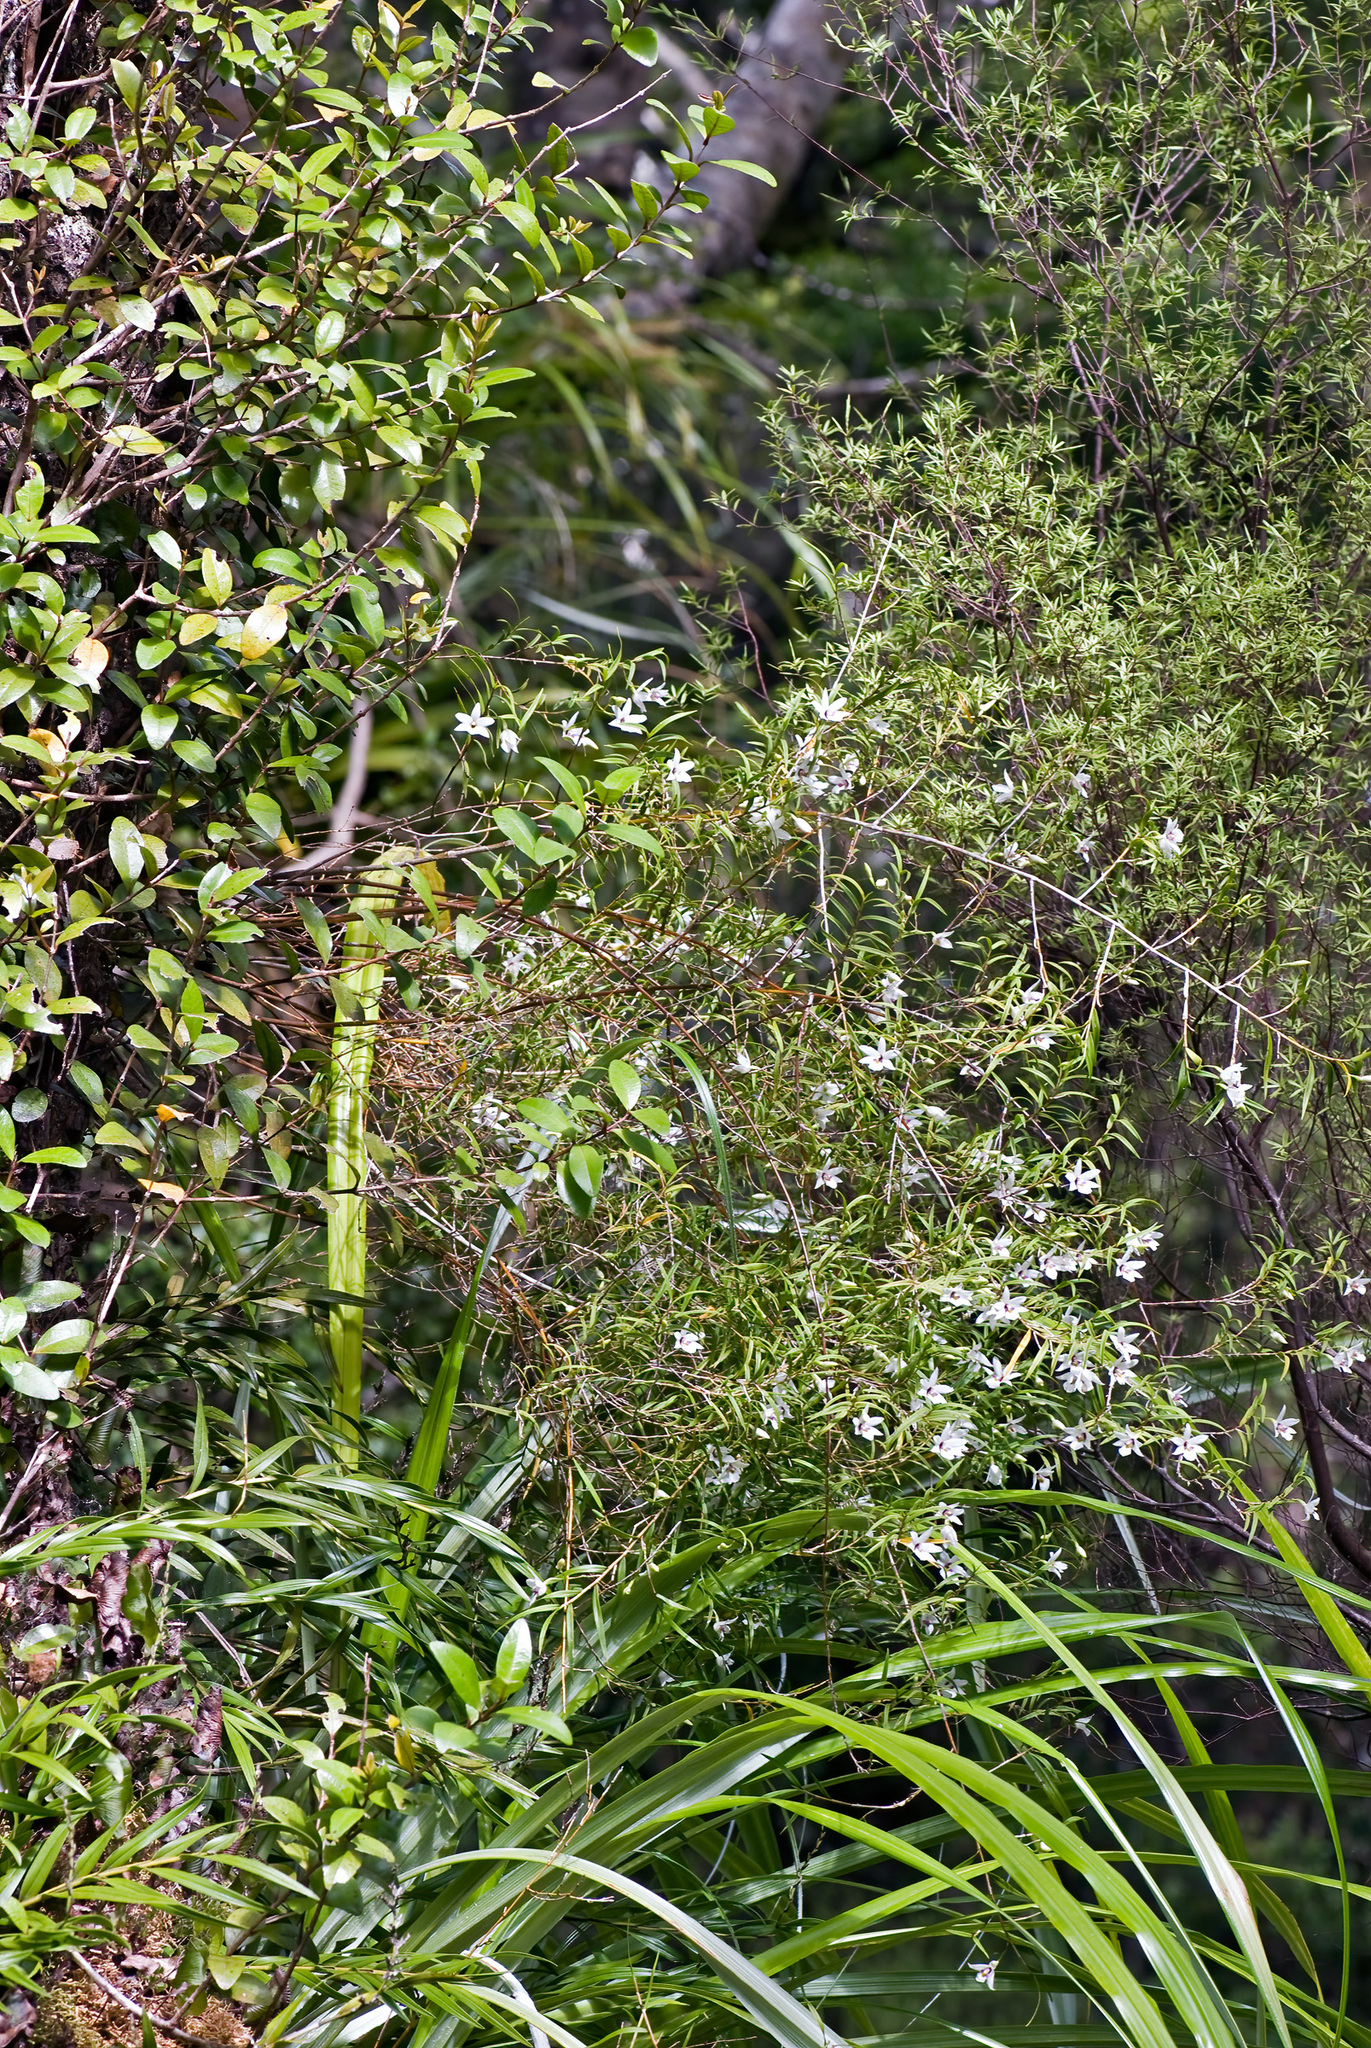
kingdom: Plantae
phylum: Tracheophyta
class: Liliopsida
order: Asparagales
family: Orchidaceae
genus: Dendrobium
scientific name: Dendrobium cunninghamii
